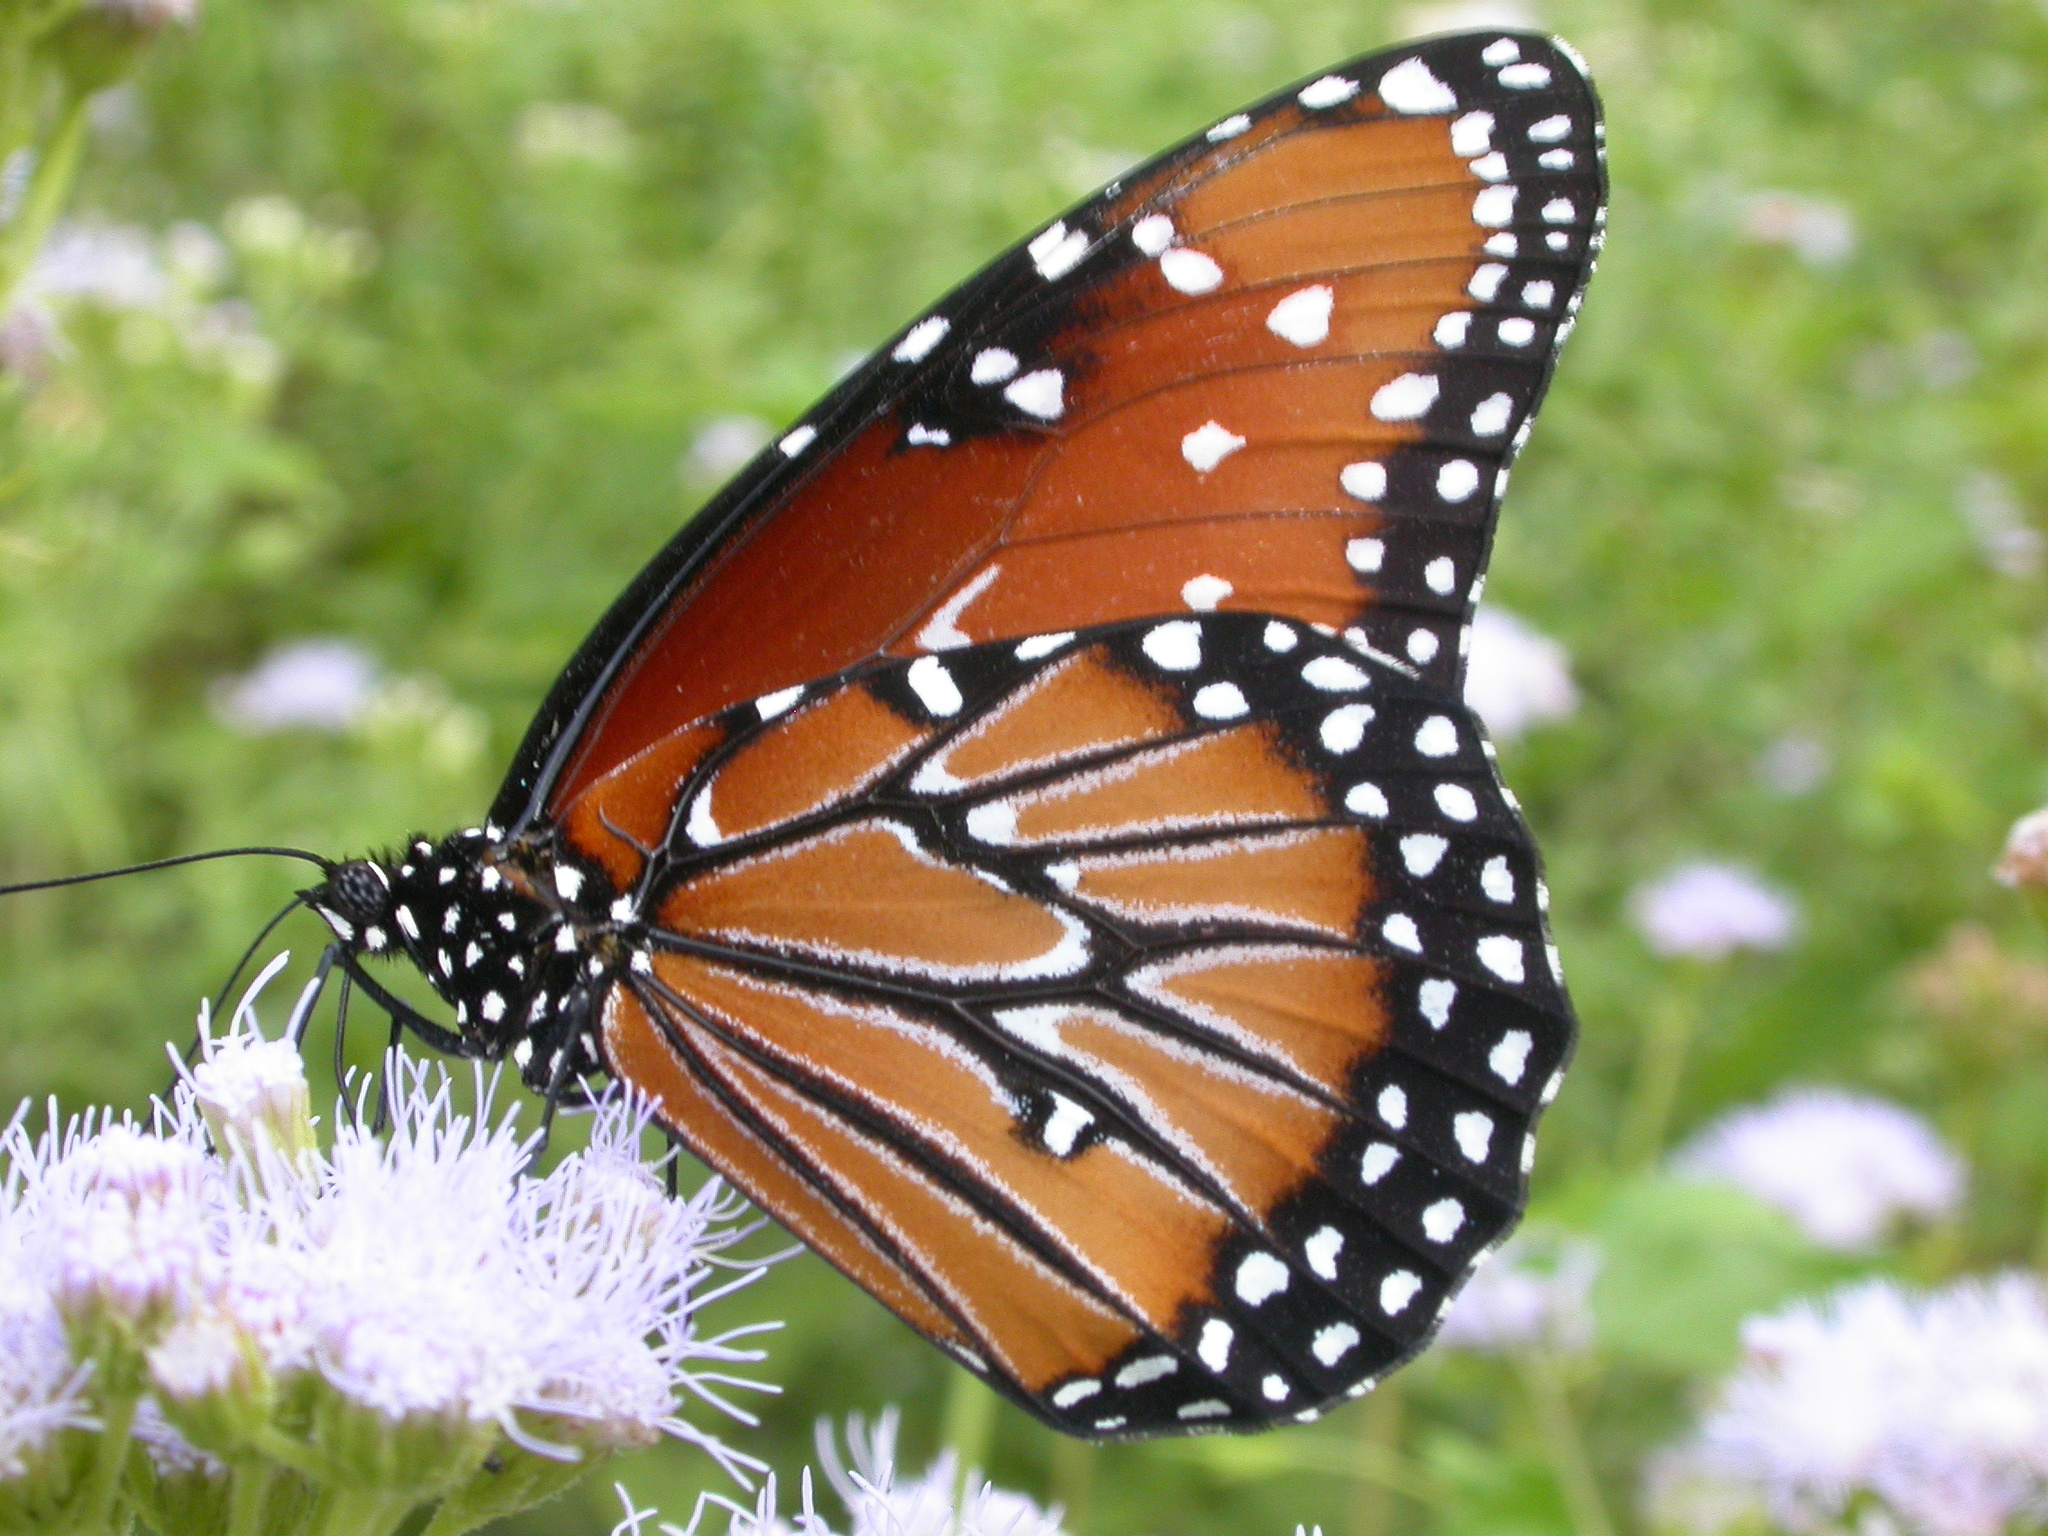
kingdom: Animalia
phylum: Arthropoda
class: Insecta
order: Lepidoptera
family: Nymphalidae
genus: Danaus
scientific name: Danaus gilippus
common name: Queen
